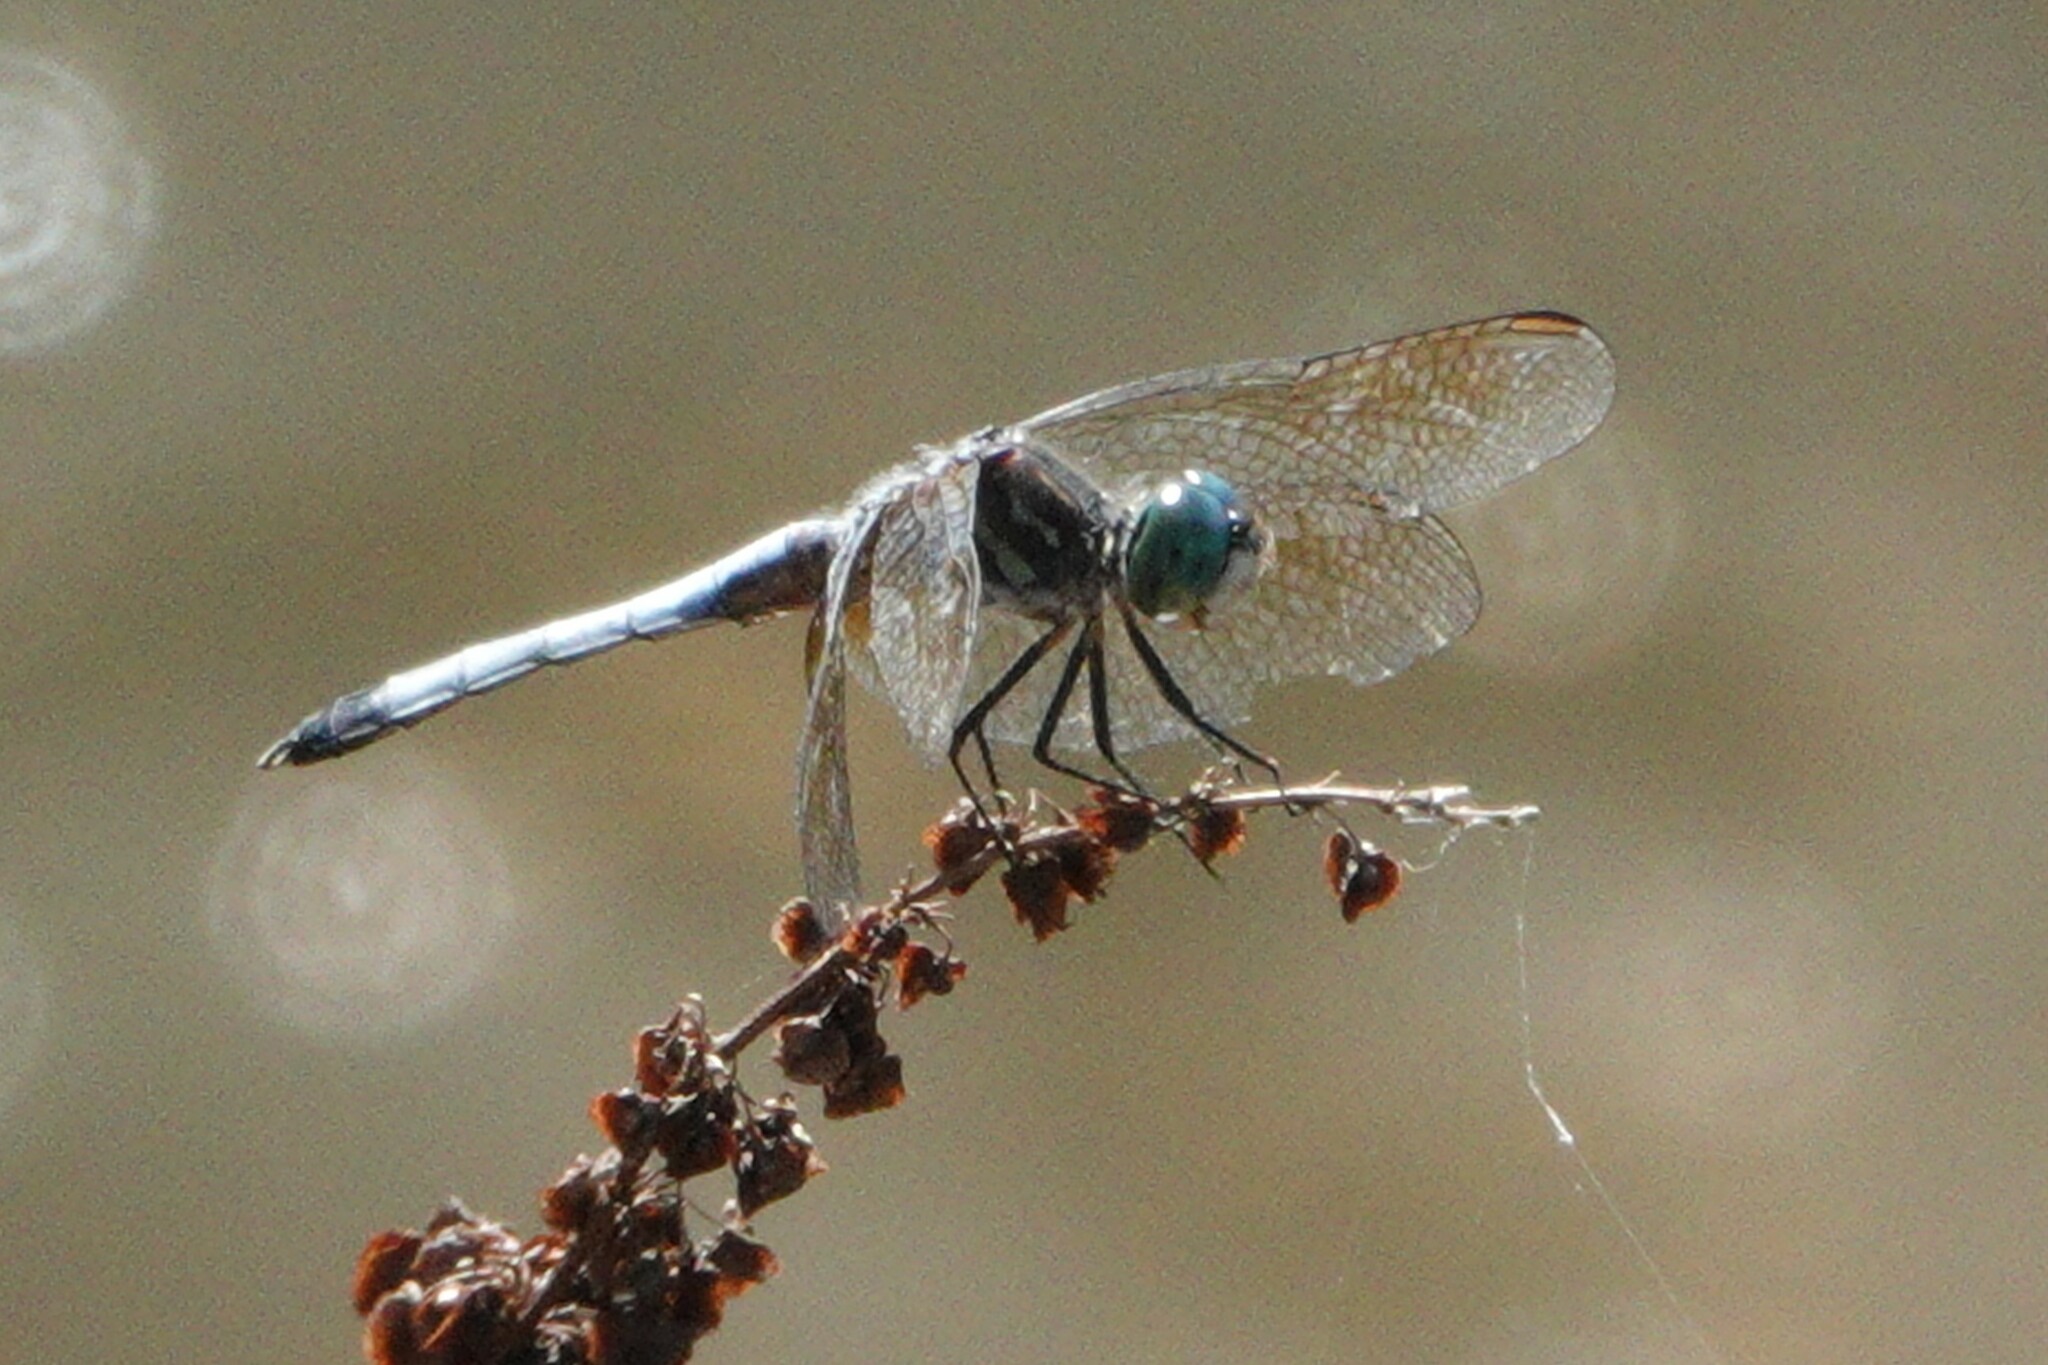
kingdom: Animalia
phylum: Arthropoda
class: Insecta
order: Odonata
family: Libellulidae
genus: Pachydiplax
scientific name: Pachydiplax longipennis
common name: Blue dasher
